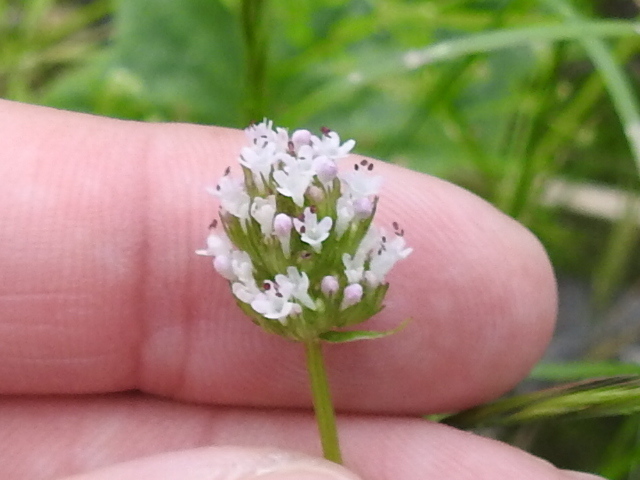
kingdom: Plantae
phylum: Tracheophyta
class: Magnoliopsida
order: Dipsacales
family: Caprifoliaceae
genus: Plectritis
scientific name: Plectritis macroptera
